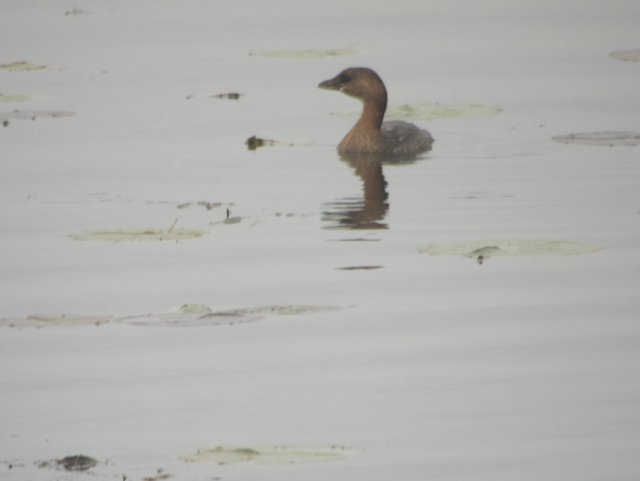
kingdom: Animalia
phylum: Chordata
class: Aves
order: Podicipediformes
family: Podicipedidae
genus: Podilymbus
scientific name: Podilymbus podiceps
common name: Pied-billed grebe
